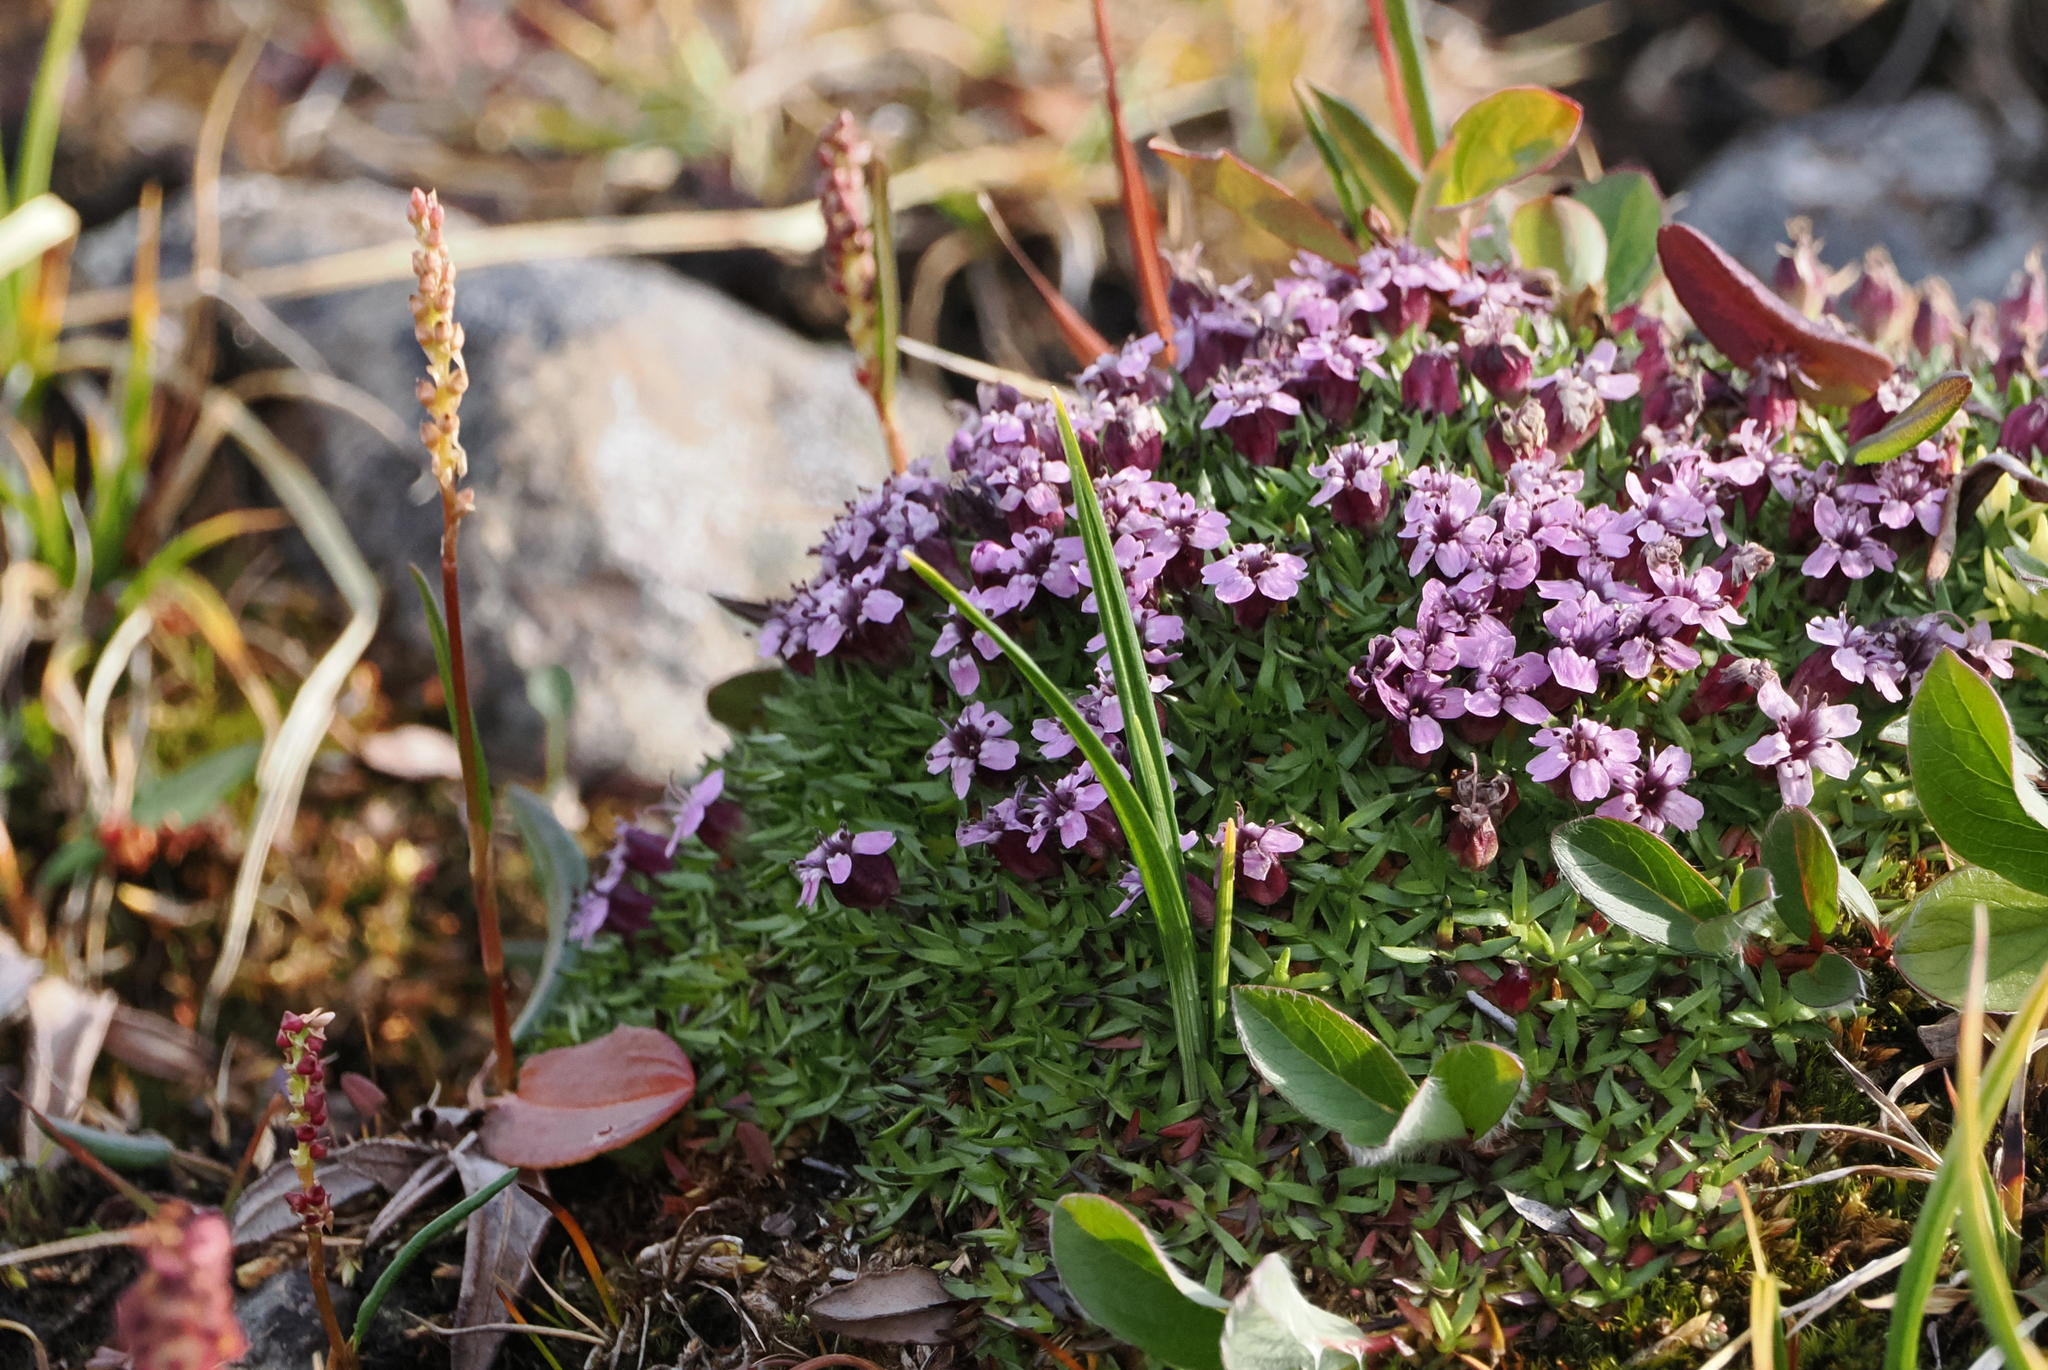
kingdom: Plantae
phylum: Tracheophyta
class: Magnoliopsida
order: Caryophyllales
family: Caryophyllaceae
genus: Silene
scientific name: Silene acaulis
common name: Moss campion
